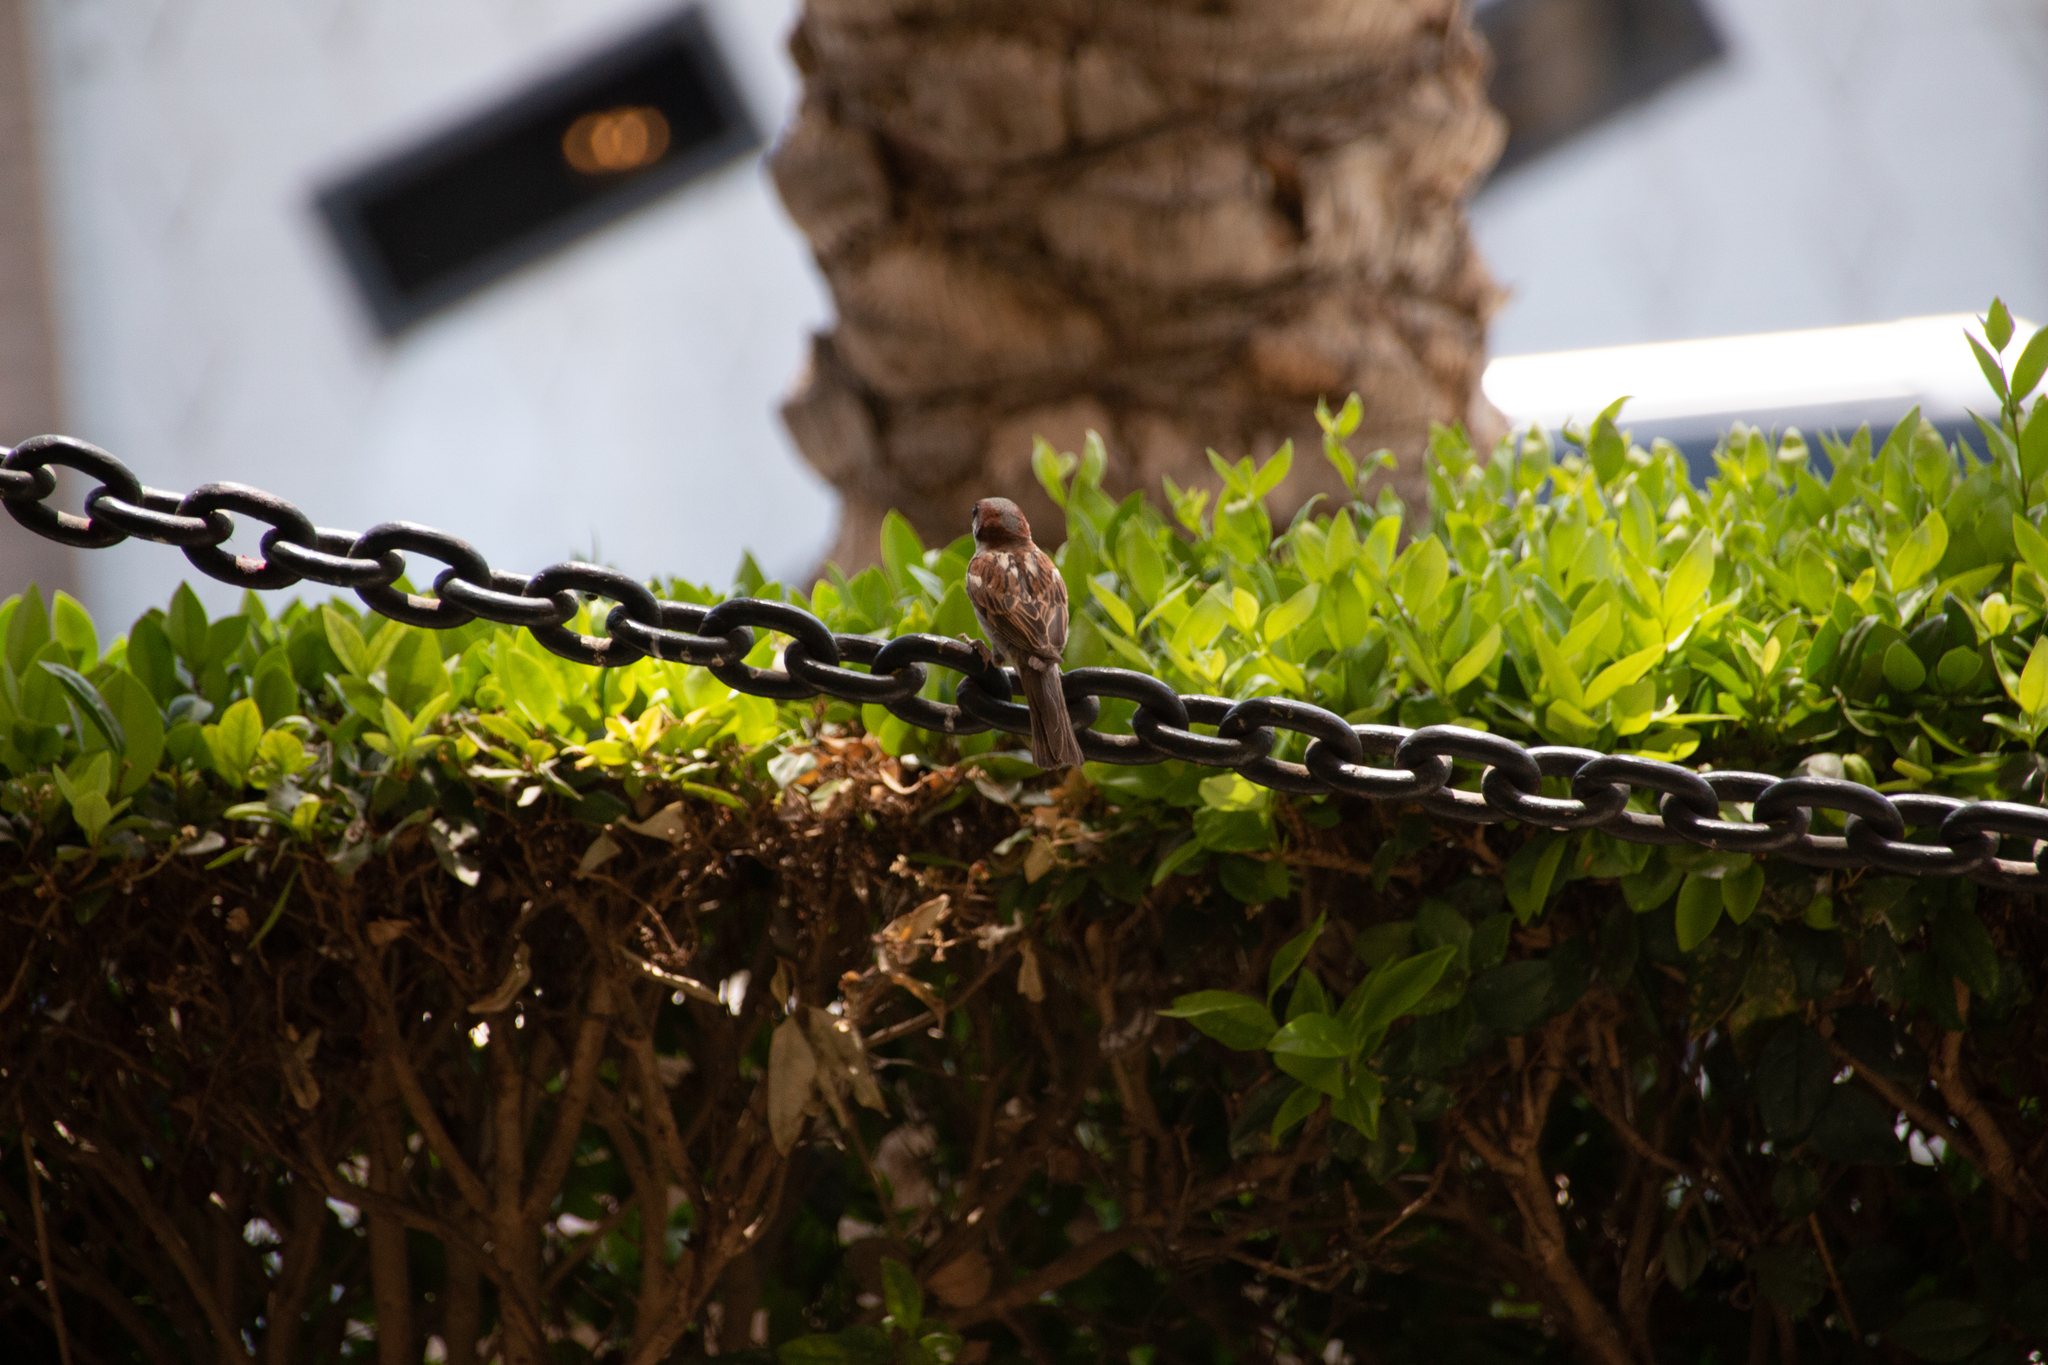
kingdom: Animalia
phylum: Chordata
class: Aves
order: Passeriformes
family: Passeridae
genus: Passer
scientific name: Passer domesticus
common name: House sparrow
